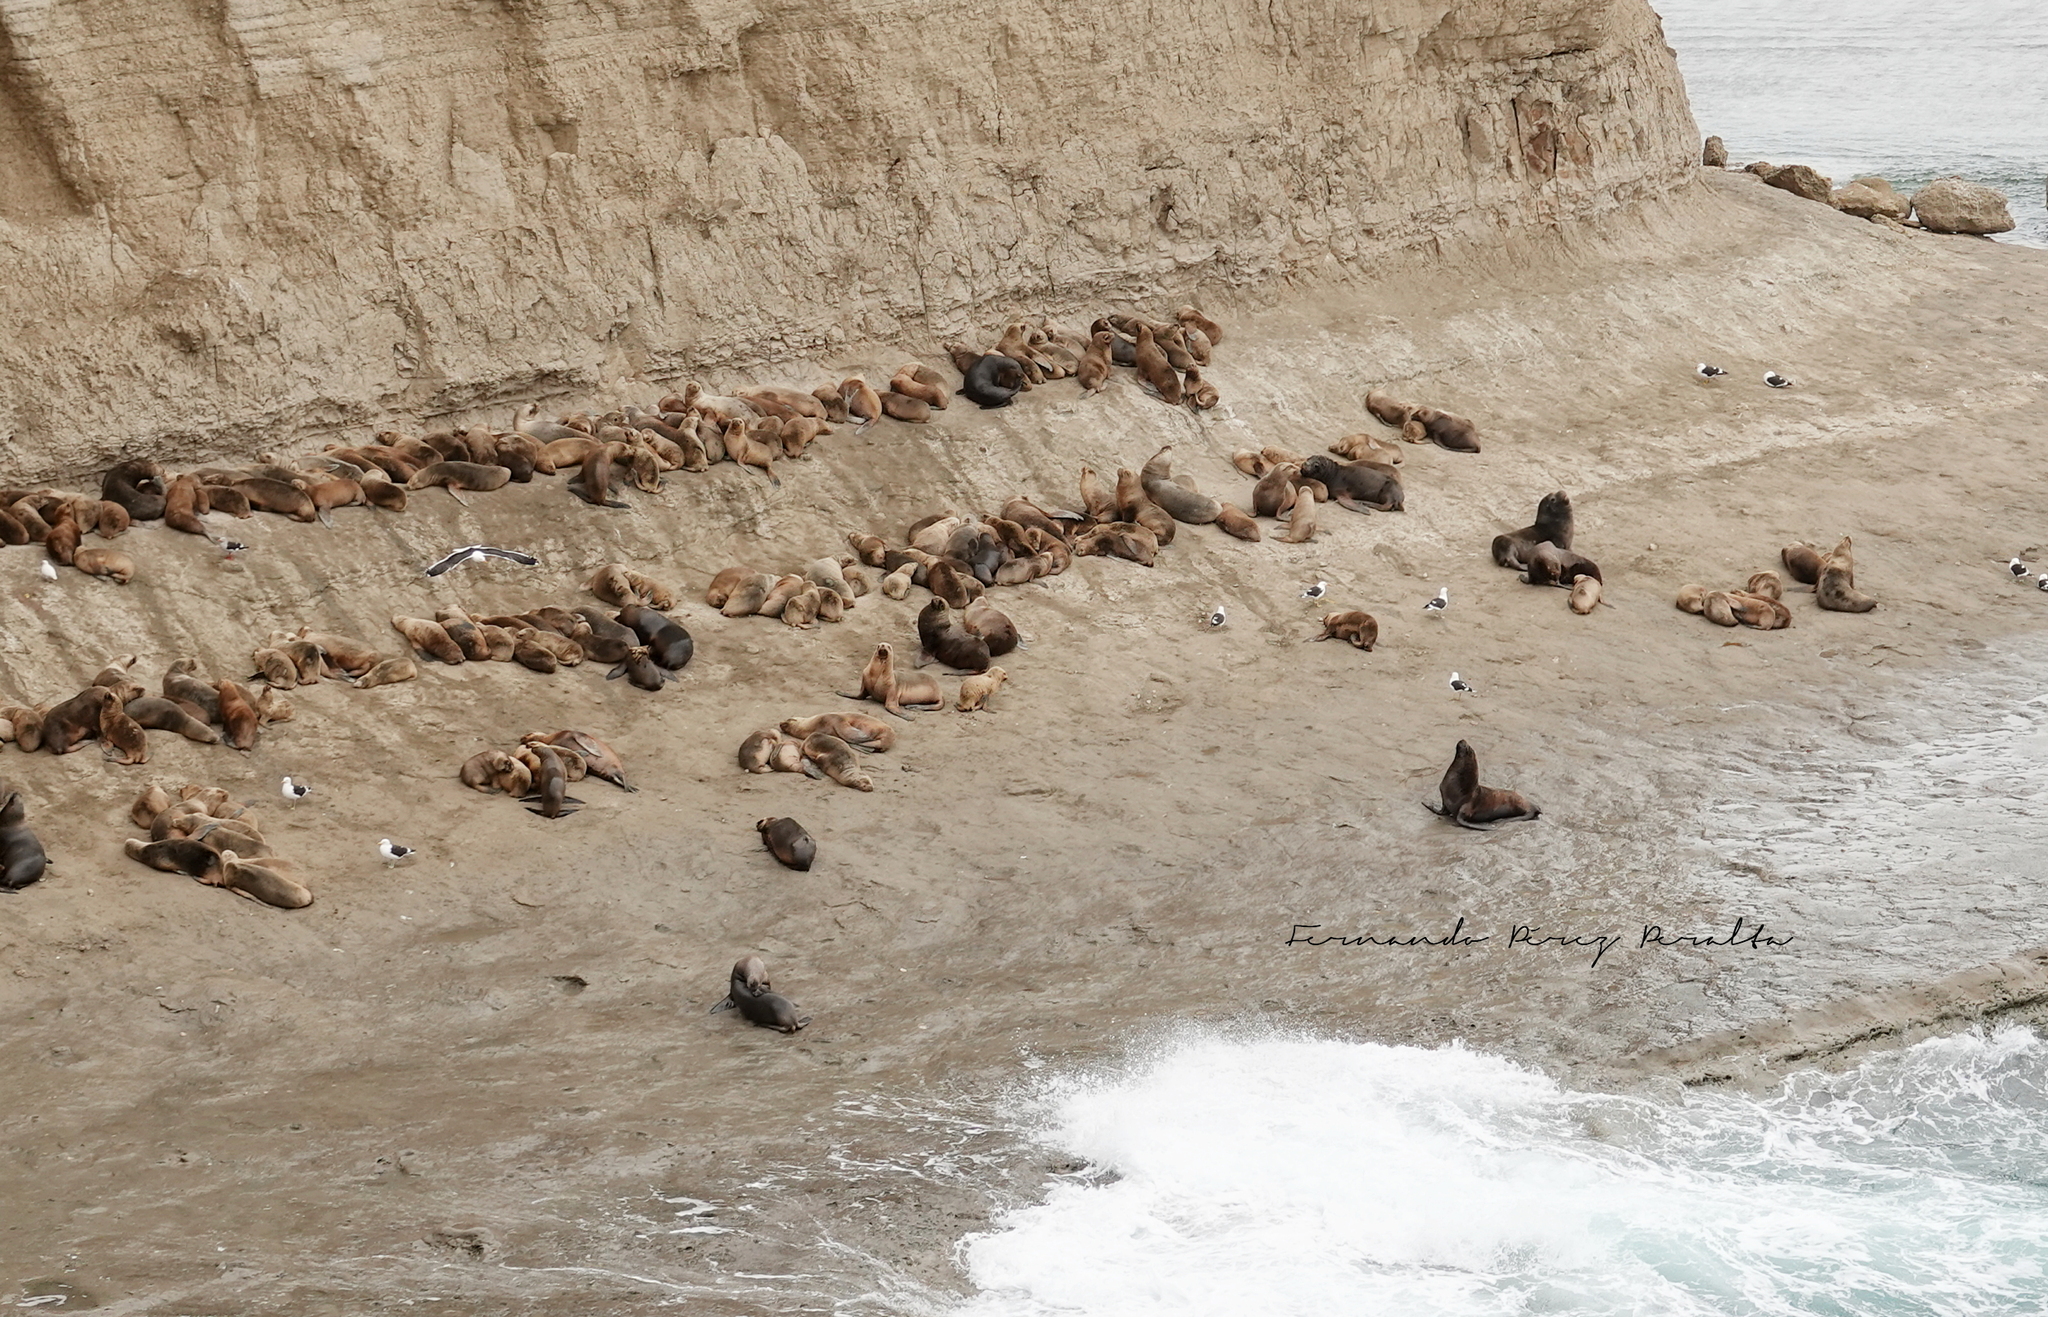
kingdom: Animalia
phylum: Chordata
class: Mammalia
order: Carnivora
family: Otariidae
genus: Otaria
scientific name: Otaria byronia
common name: South american sea lion
